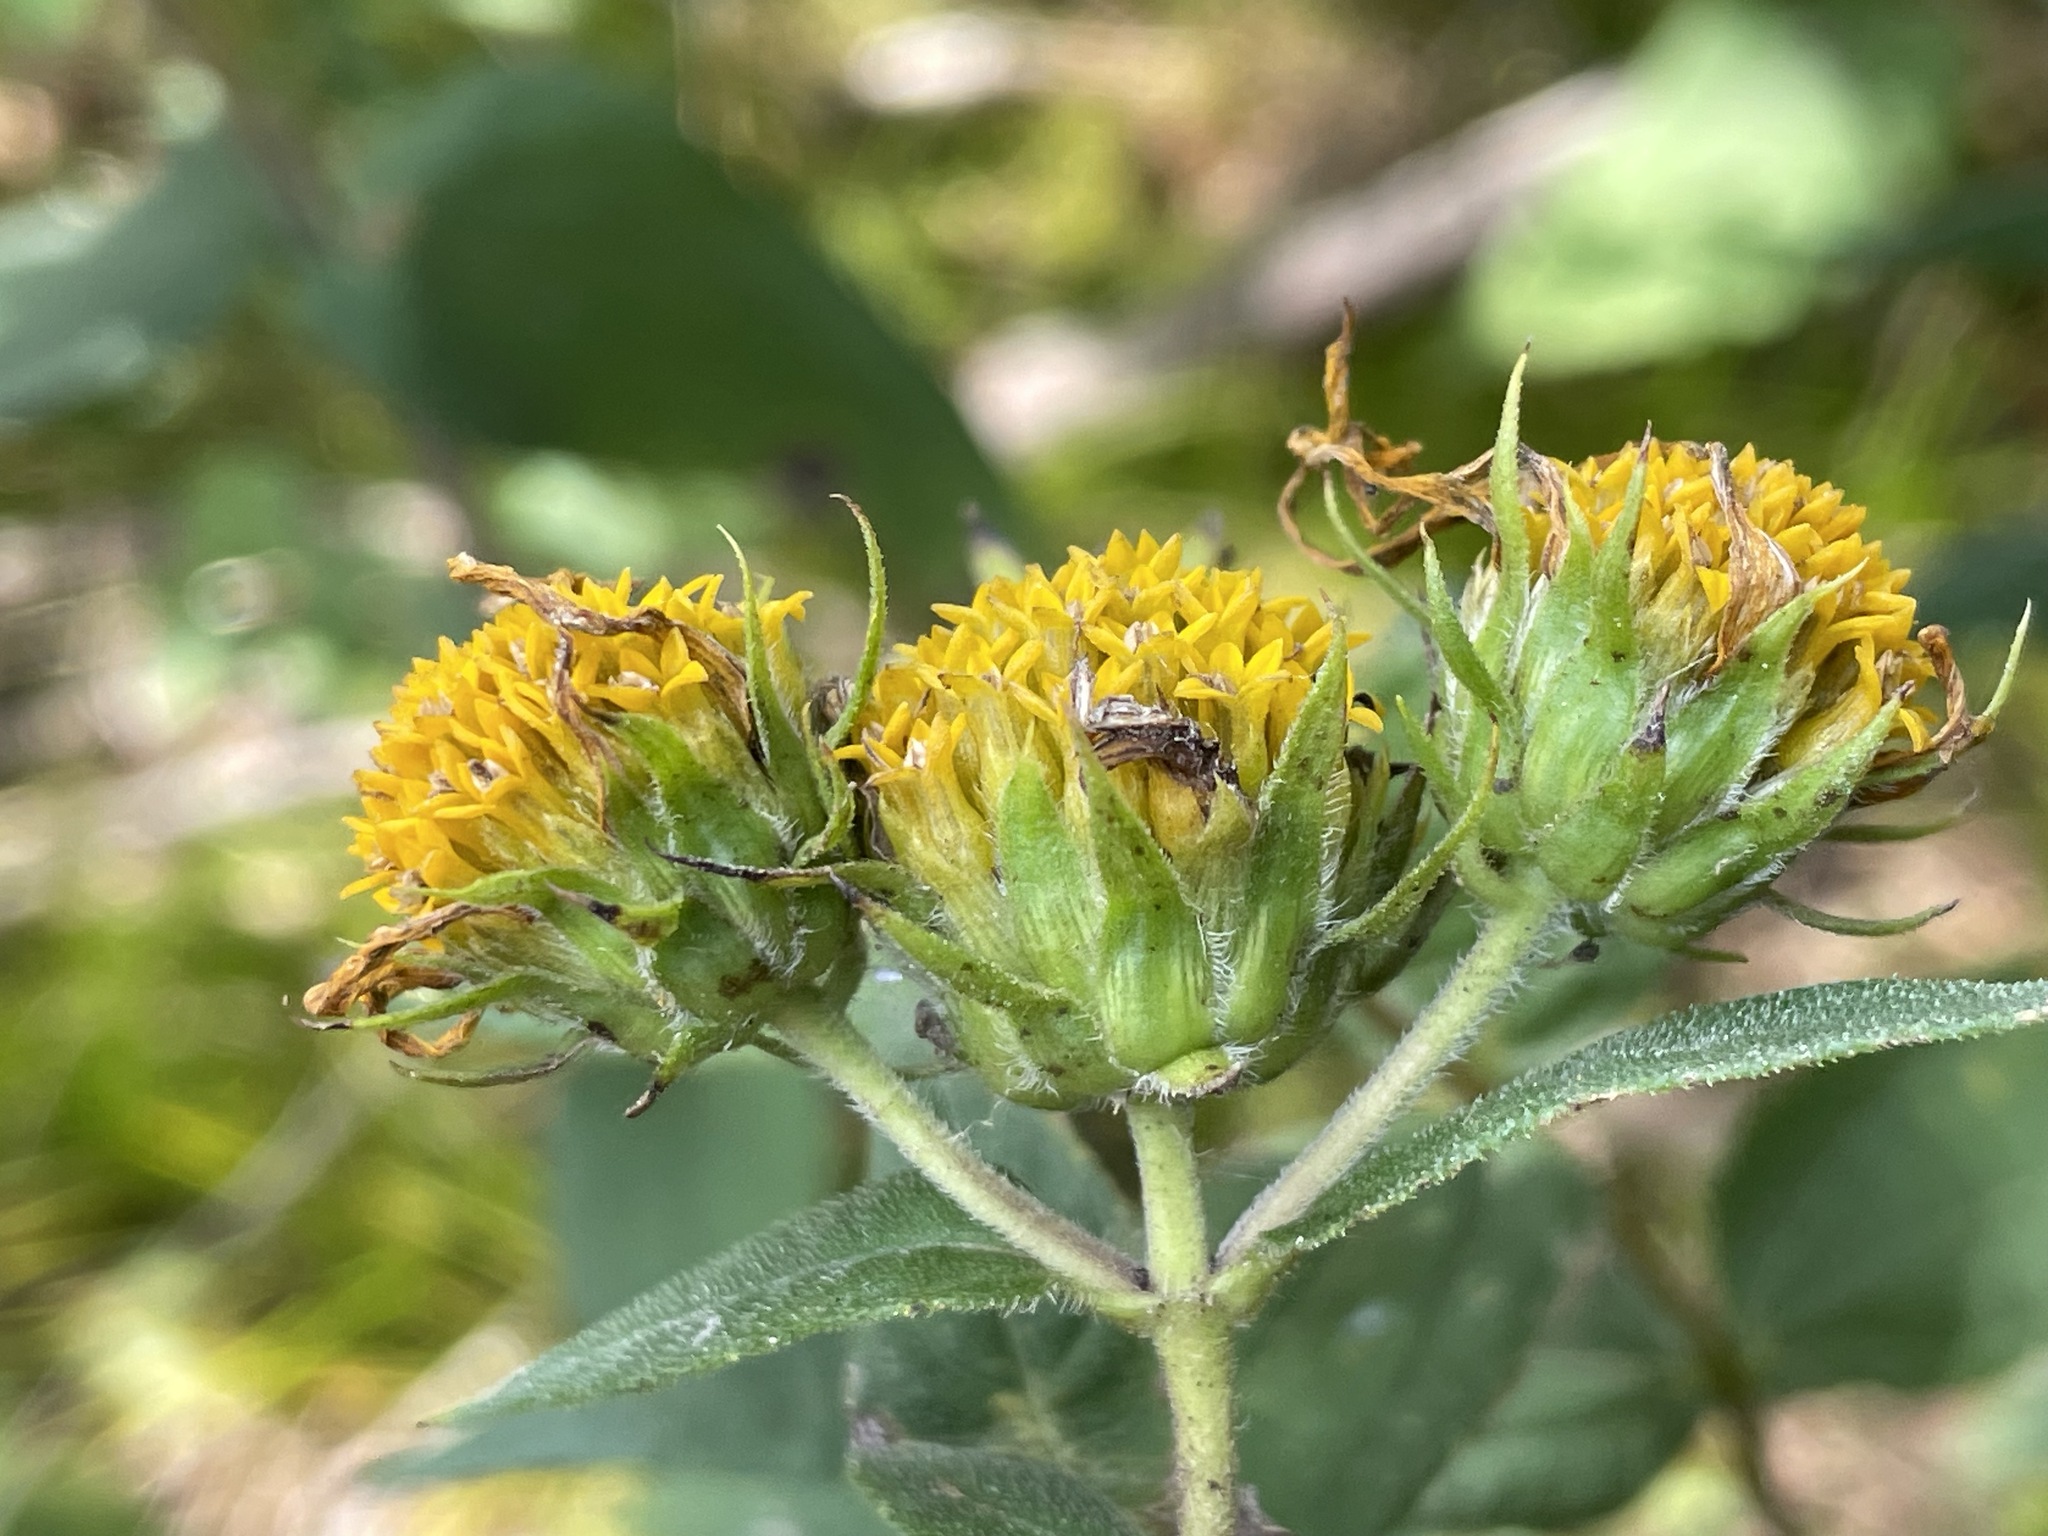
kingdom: Plantae
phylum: Tracheophyta
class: Magnoliopsida
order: Asterales
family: Asteraceae
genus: Helianthus
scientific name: Helianthus divaricatus
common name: Divergent sunflower
